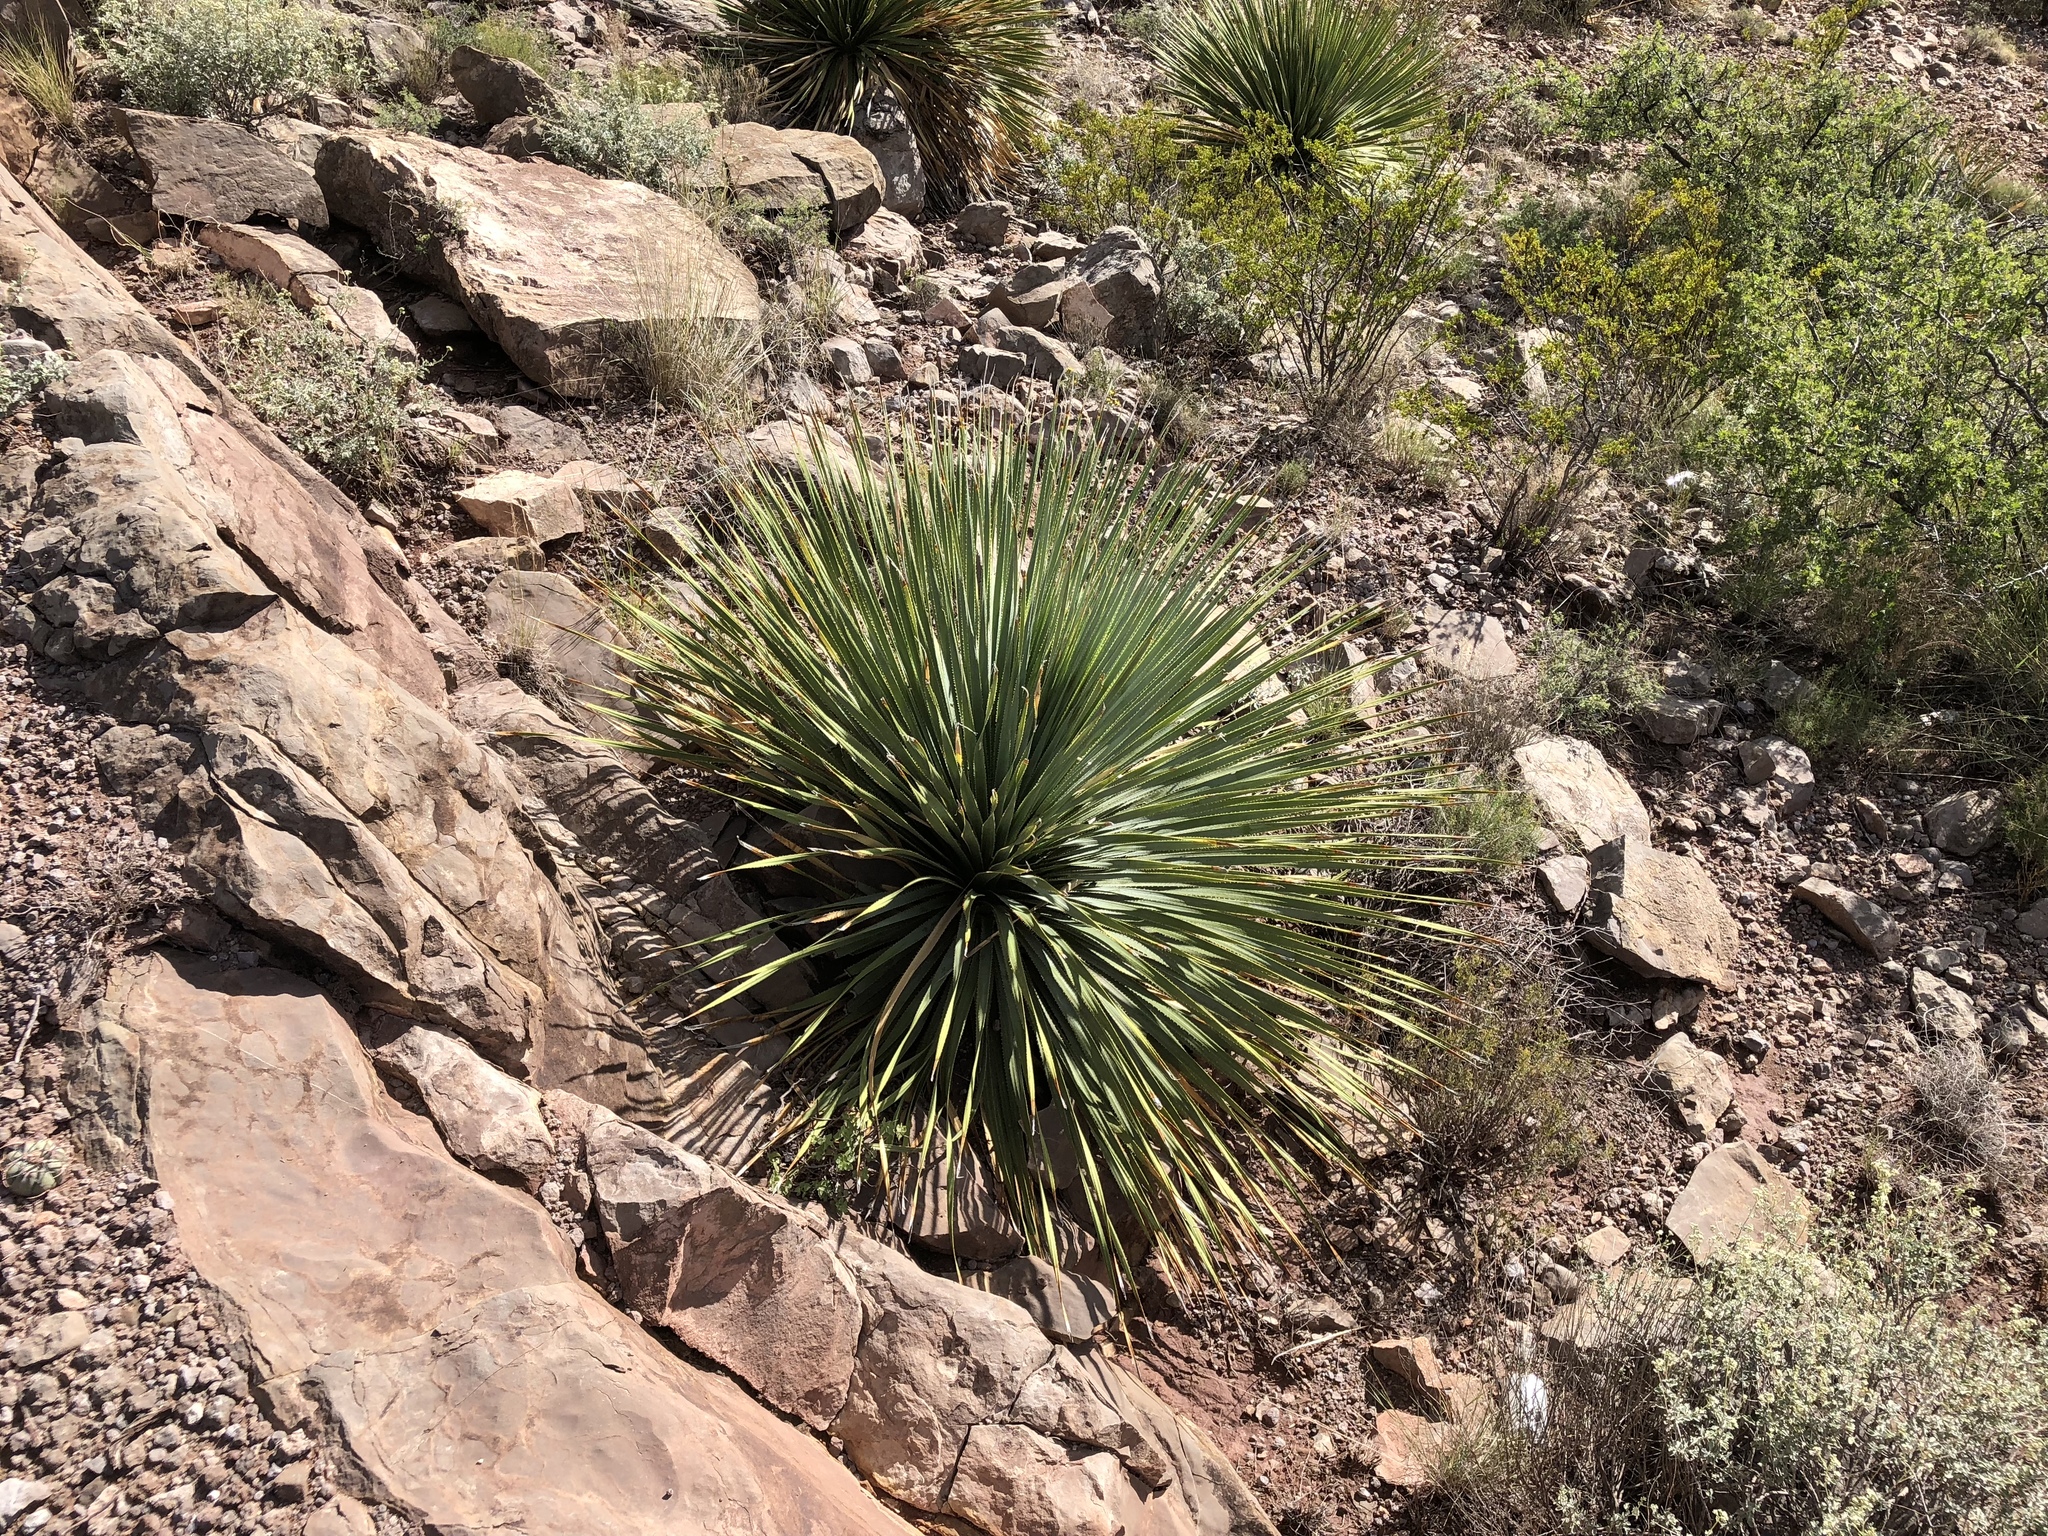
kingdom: Plantae
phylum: Tracheophyta
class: Liliopsida
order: Asparagales
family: Asparagaceae
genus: Dasylirion
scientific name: Dasylirion wheeleri
